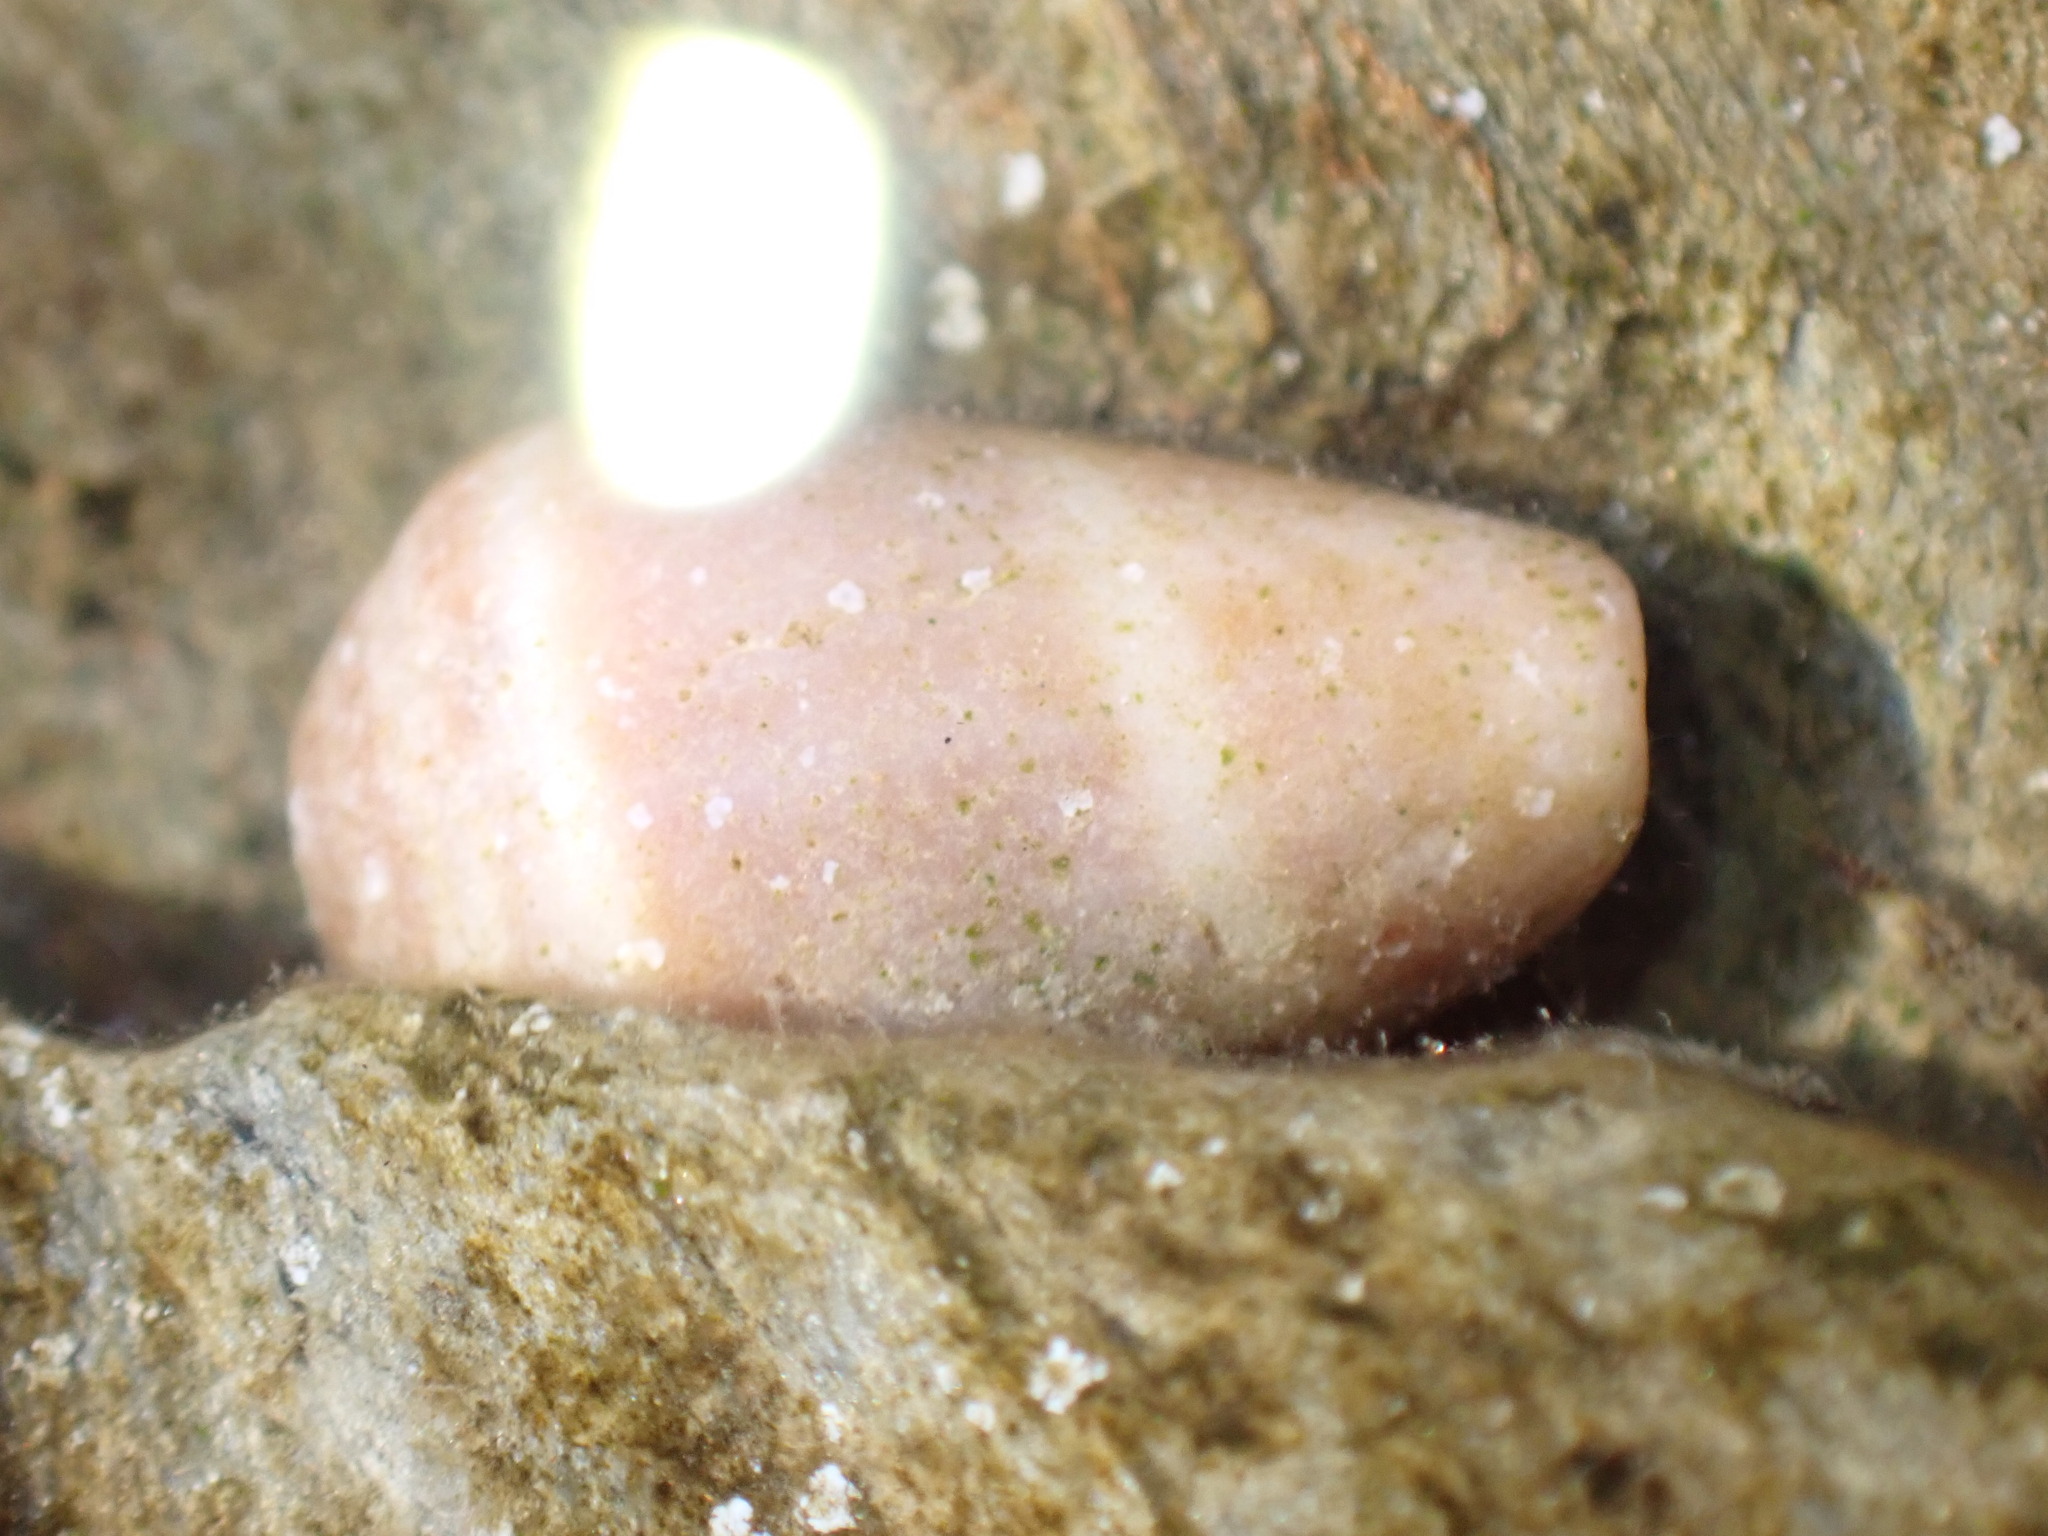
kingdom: Animalia
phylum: Mollusca
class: Gastropoda
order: Neogastropoda
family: Conidae
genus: Conus
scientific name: Conus ventricosus
